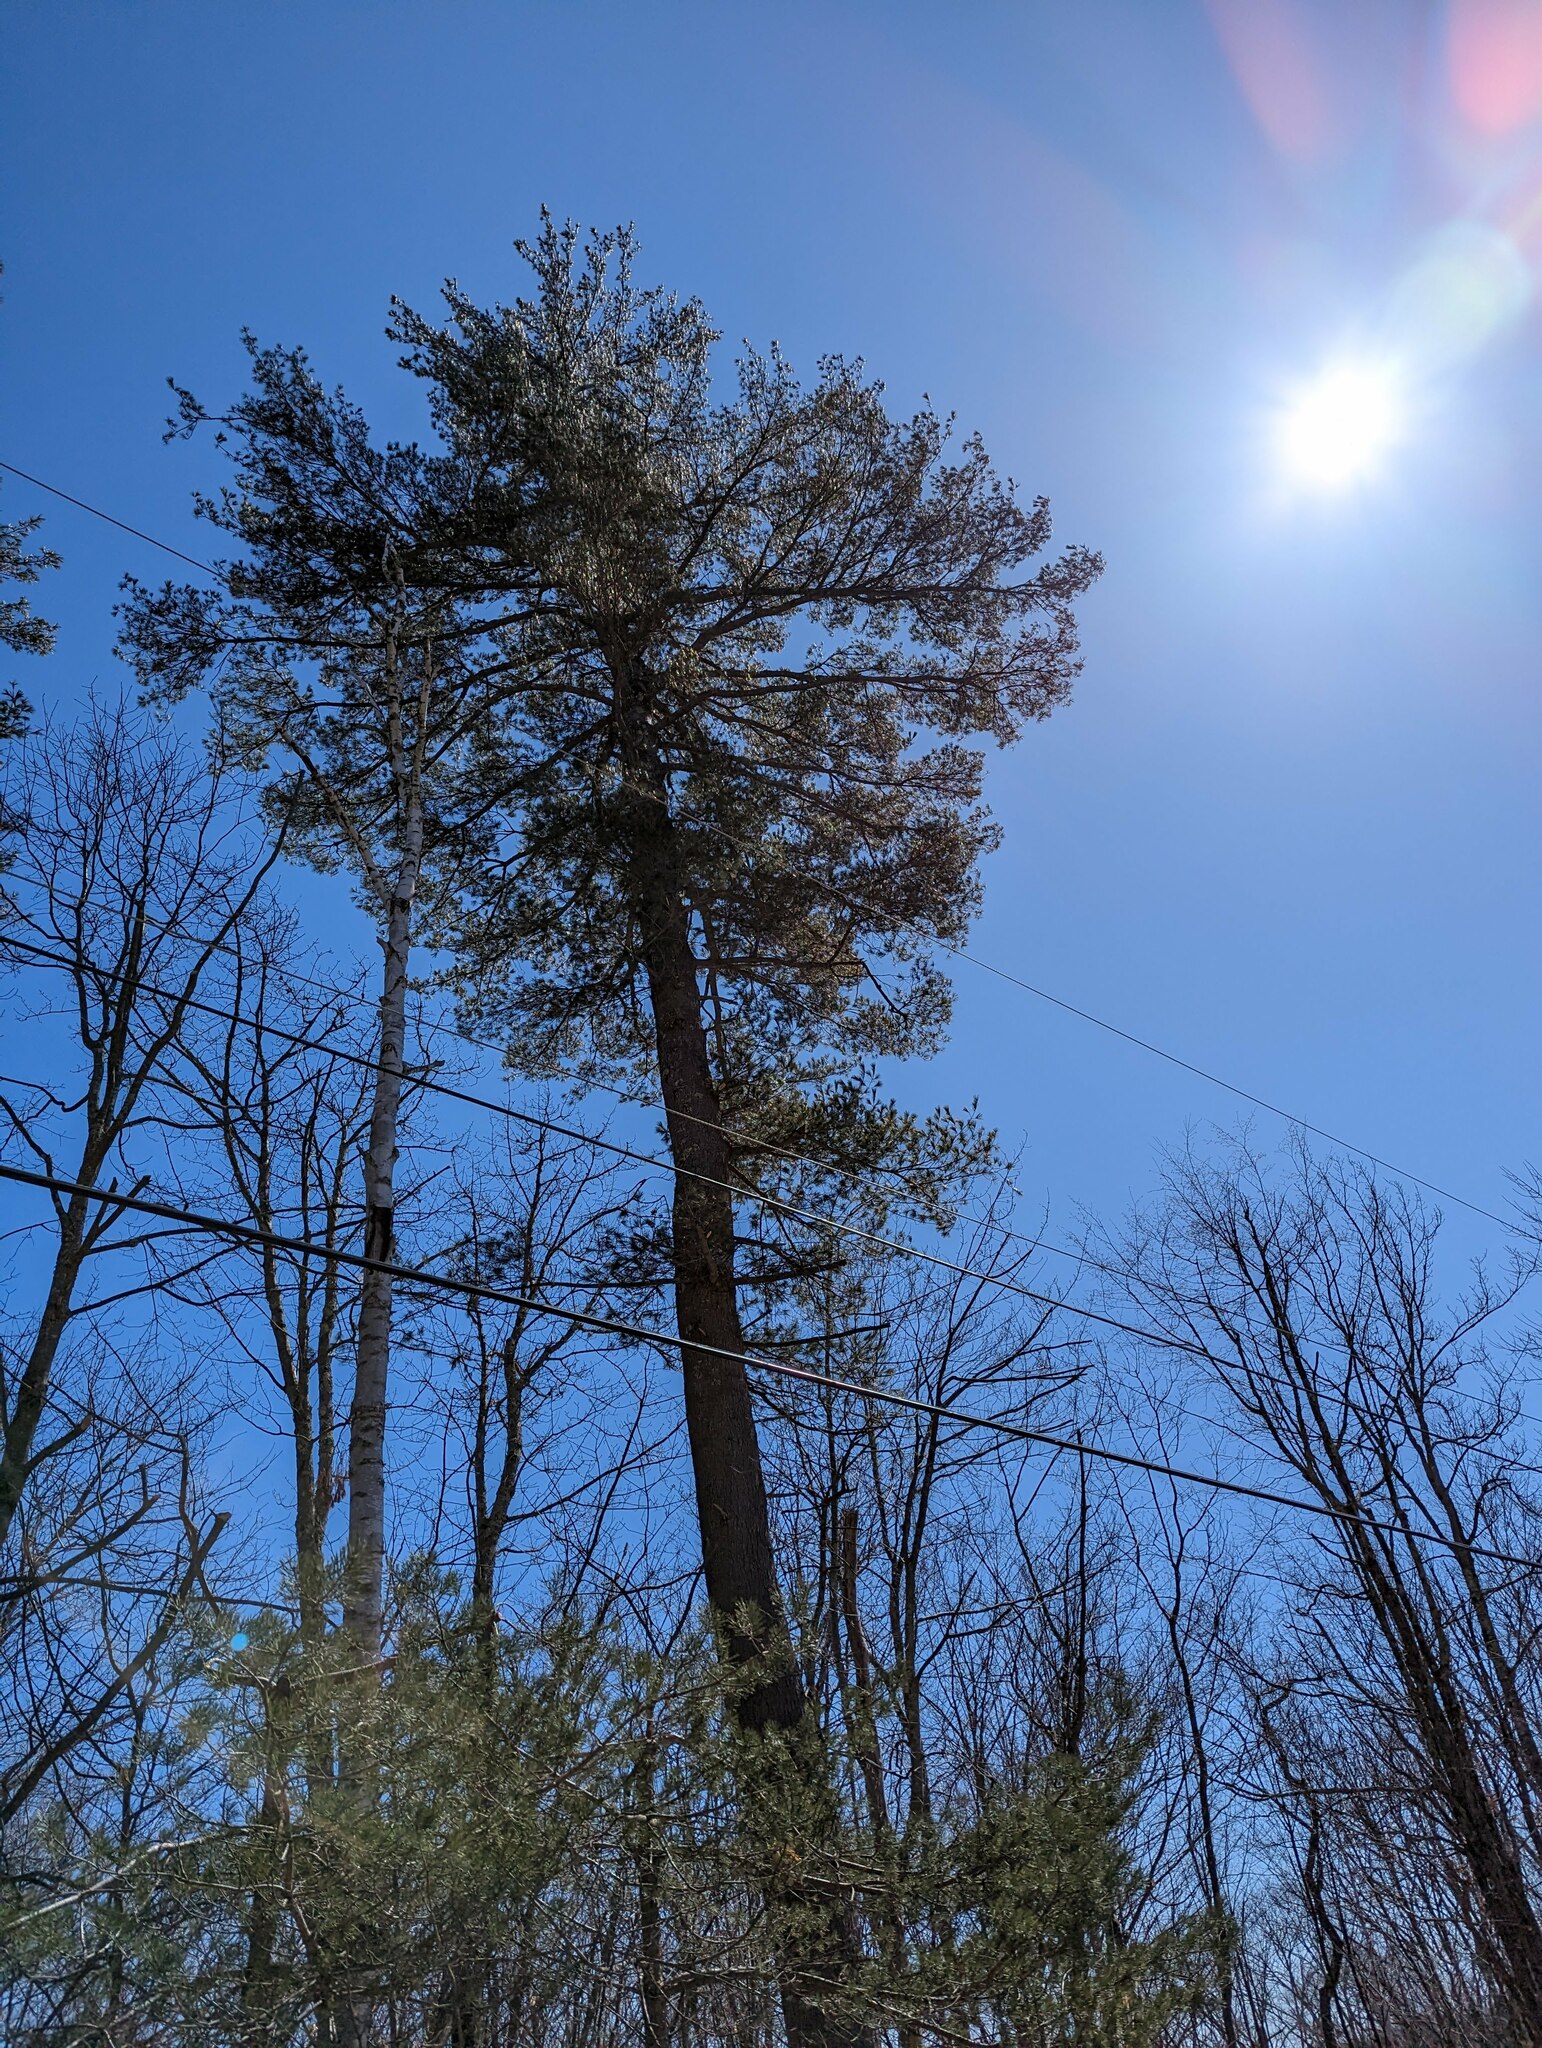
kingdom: Plantae
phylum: Tracheophyta
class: Pinopsida
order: Pinales
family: Pinaceae
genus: Pinus
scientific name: Pinus strobus
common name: Weymouth pine
